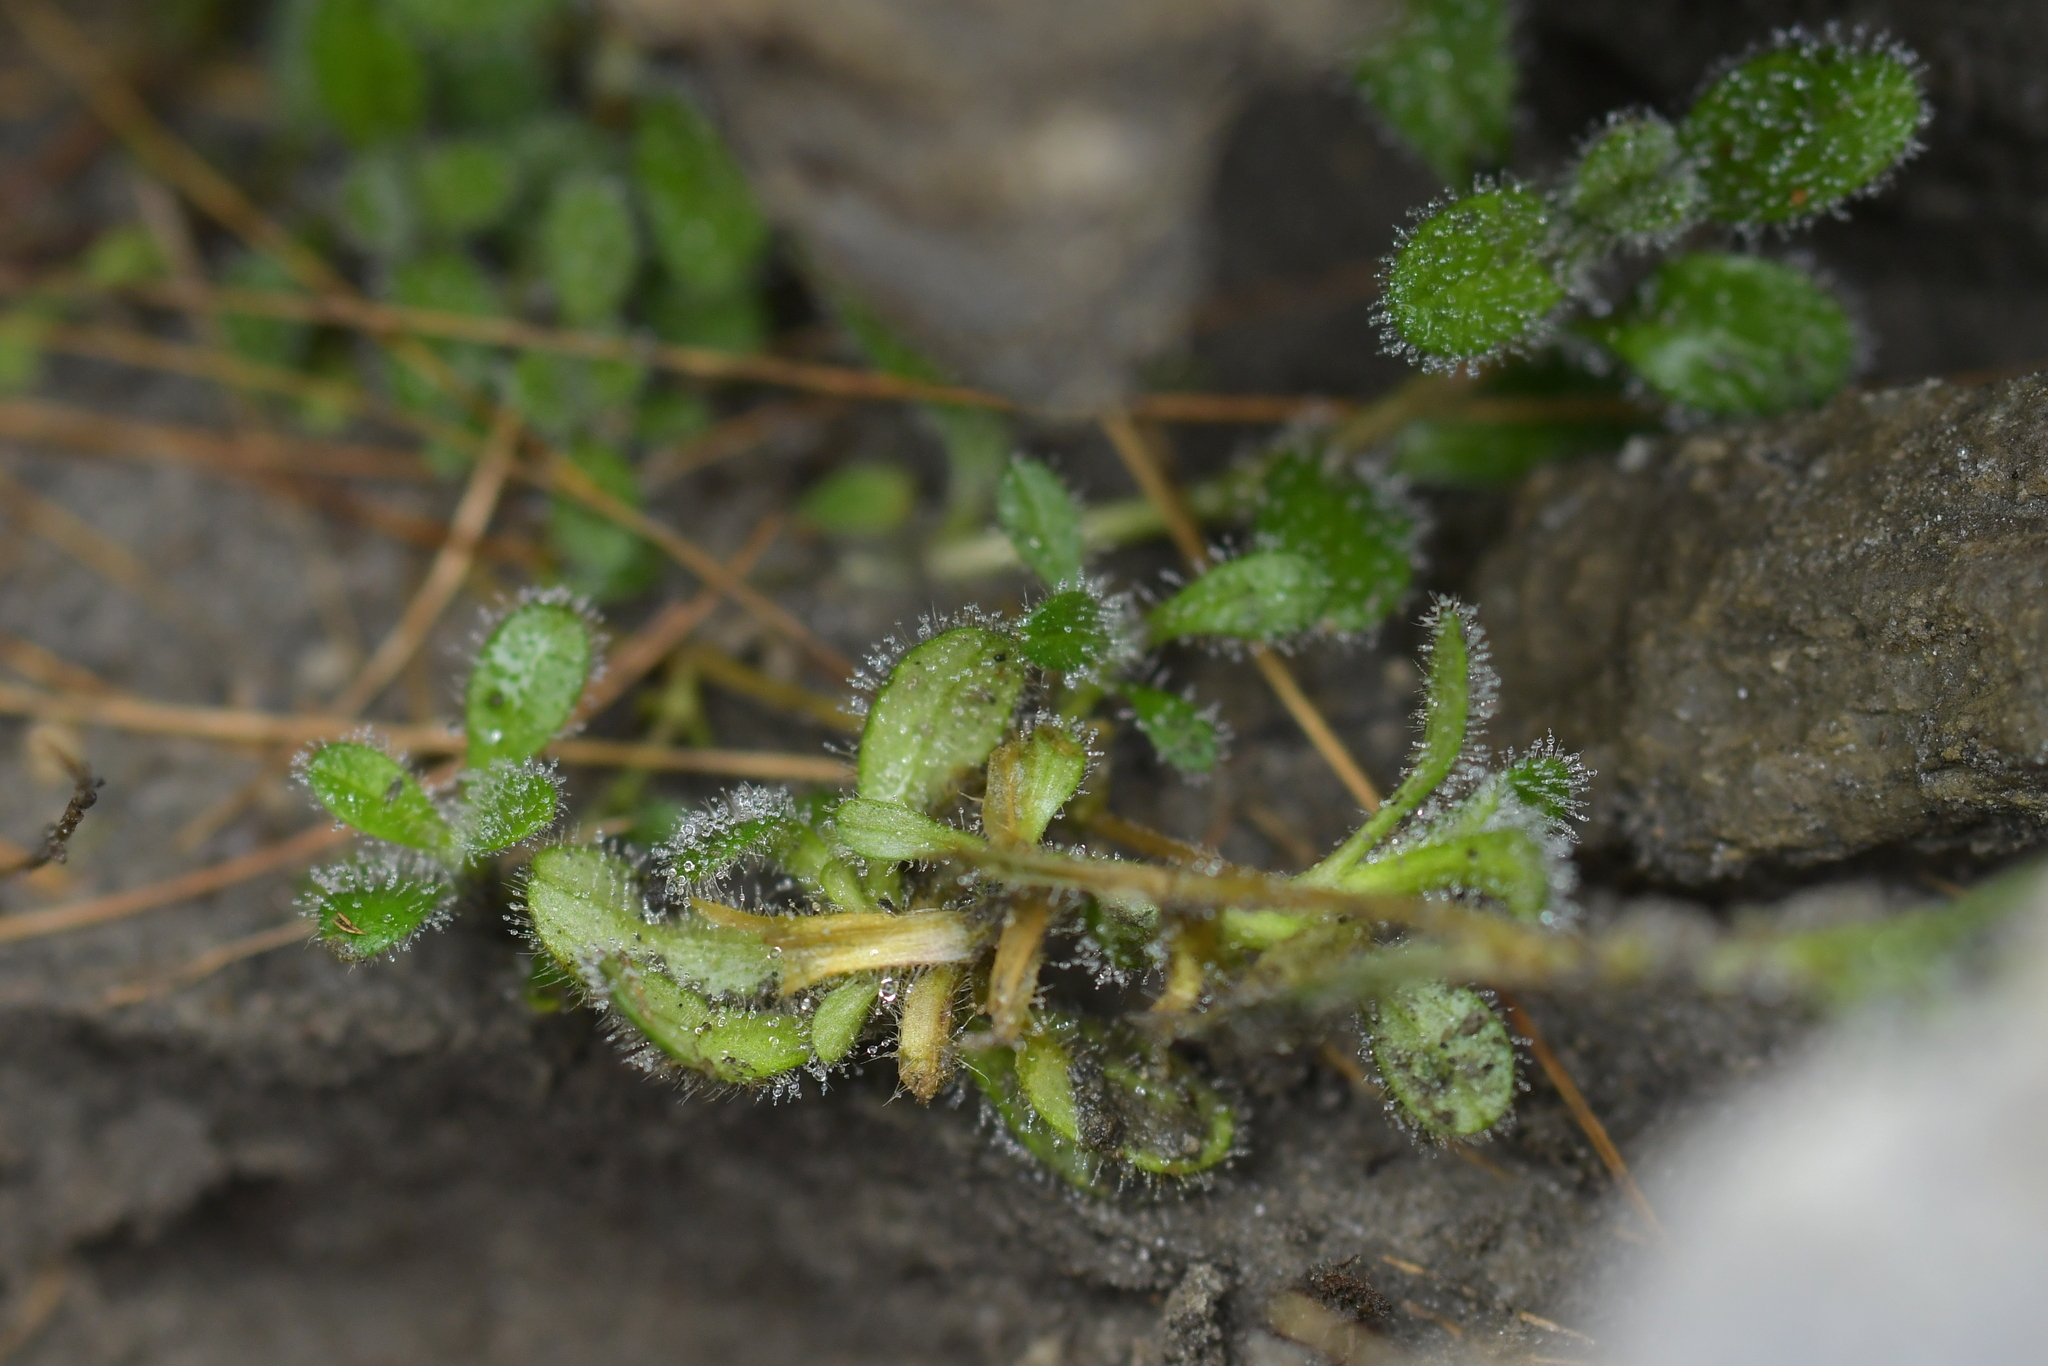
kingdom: Plantae
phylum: Tracheophyta
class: Magnoliopsida
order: Caryophyllales
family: Caryophyllaceae
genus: Cerastium
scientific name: Cerastium fontanum
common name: Common mouse-ear
